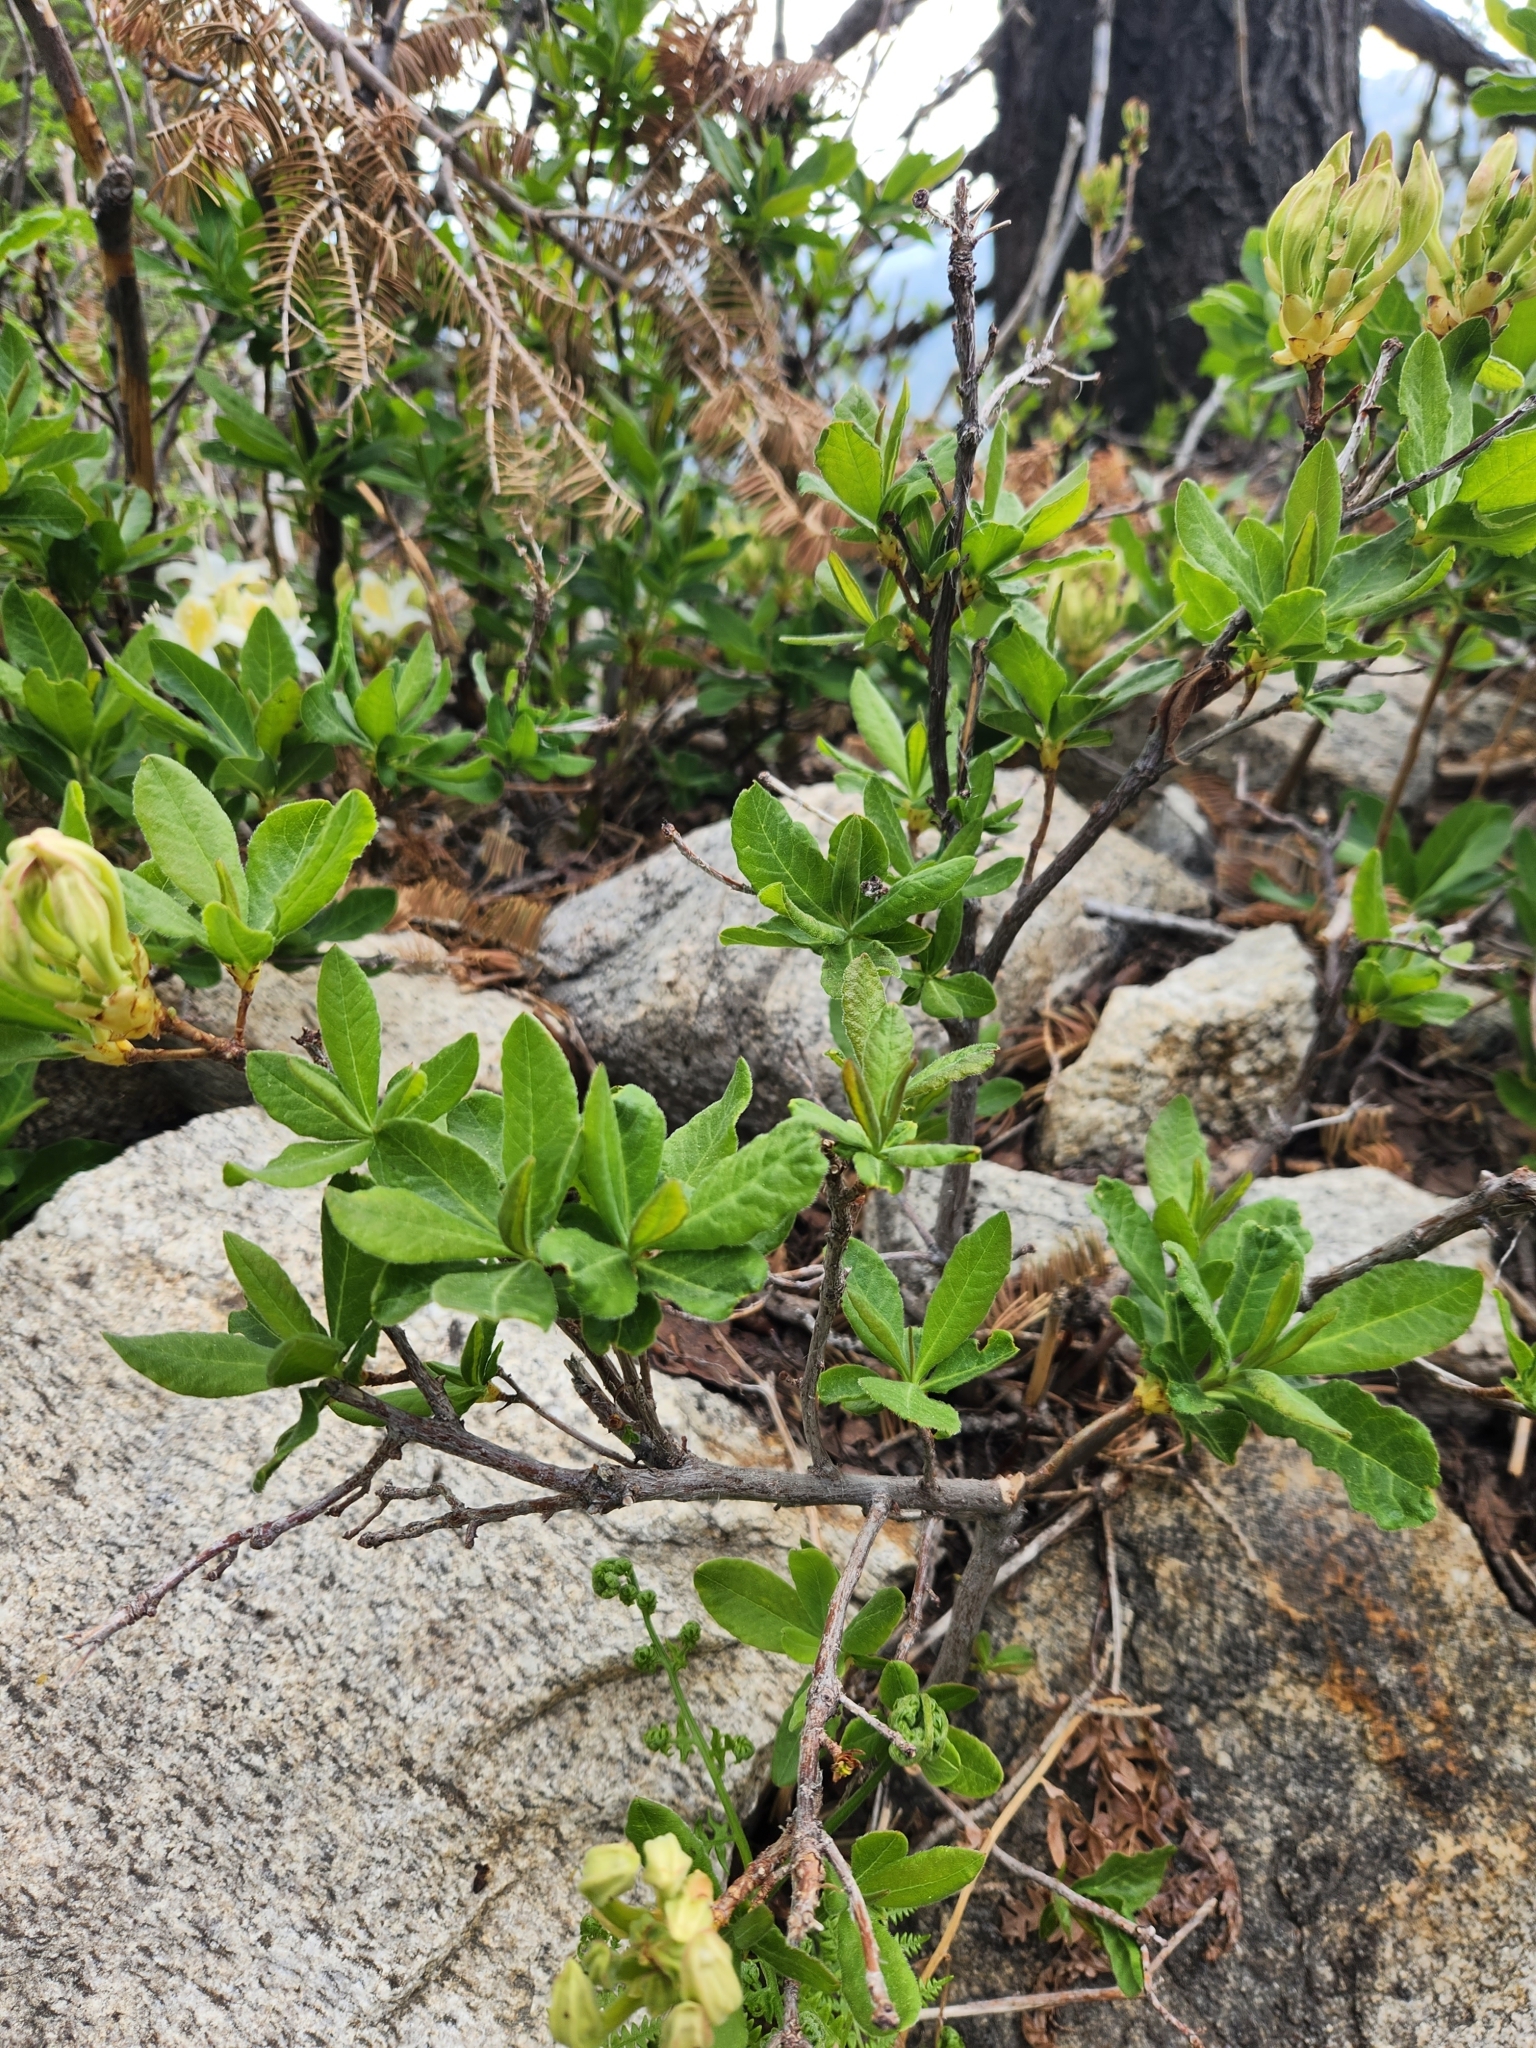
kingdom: Plantae
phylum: Tracheophyta
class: Magnoliopsida
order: Ericales
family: Ericaceae
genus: Rhododendron
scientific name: Rhododendron occidentale
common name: Western azalea
